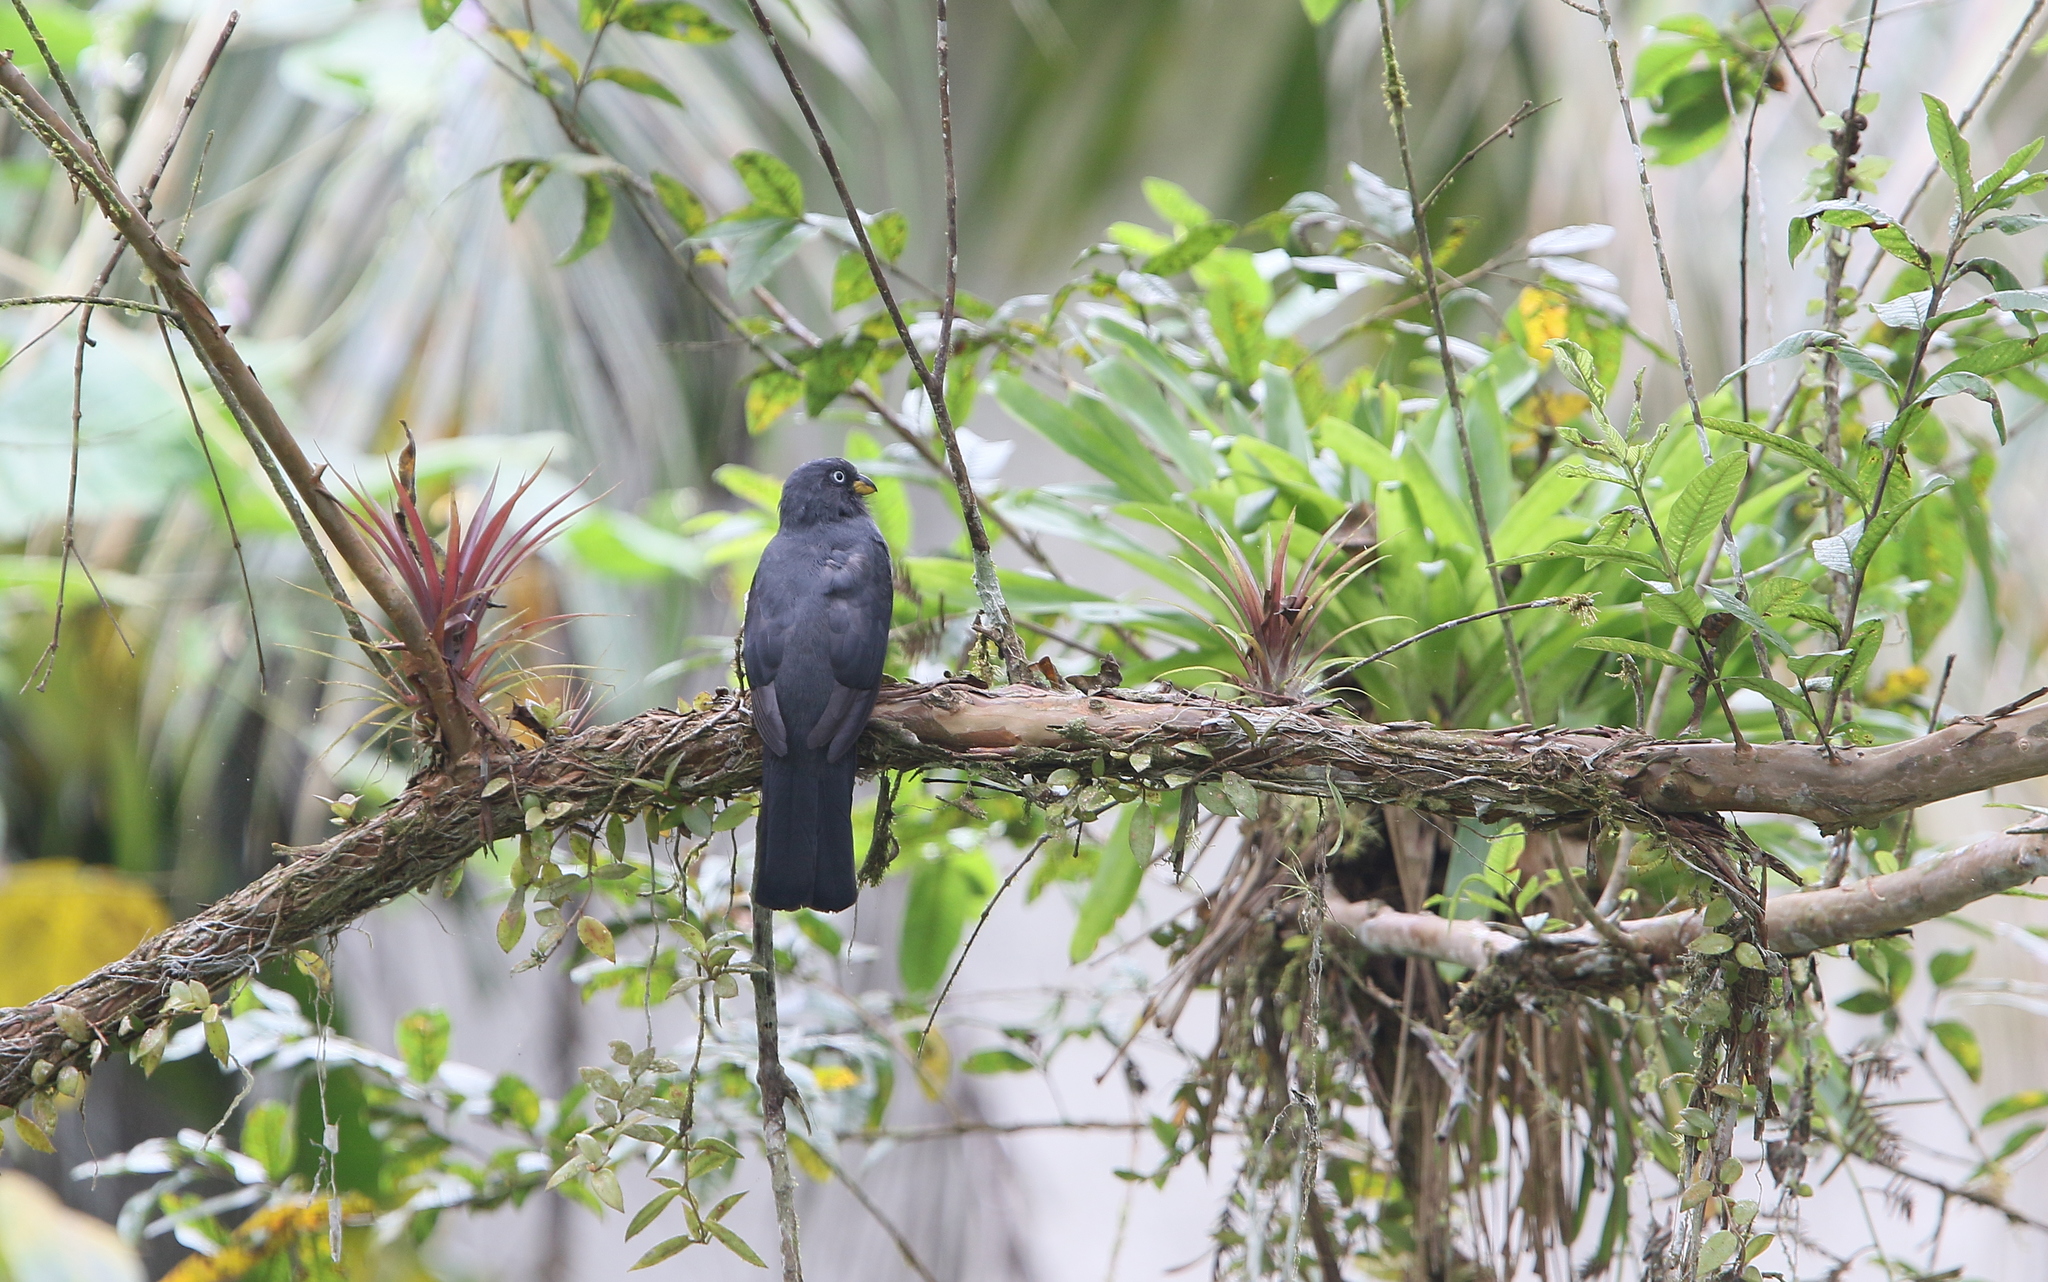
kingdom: Animalia
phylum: Chordata
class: Aves
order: Trogoniformes
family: Trogonidae
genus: Trogon
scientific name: Trogon comptus
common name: Choco trogon
